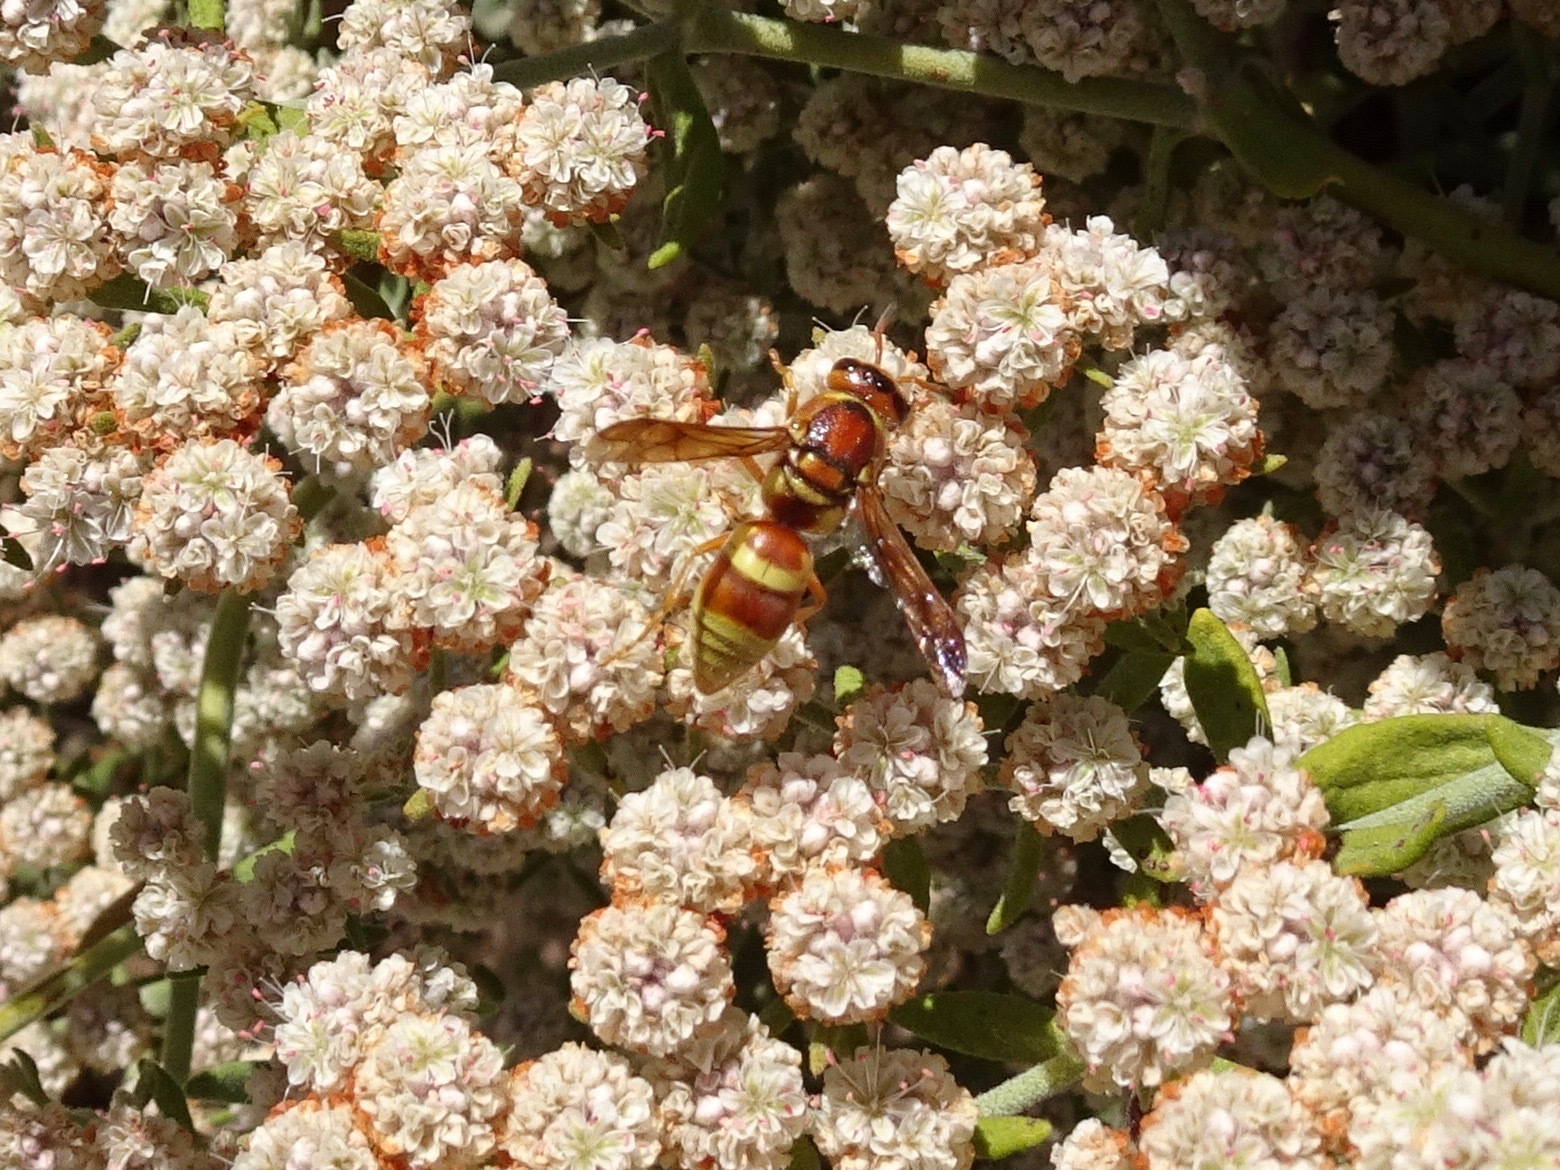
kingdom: Animalia
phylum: Arthropoda
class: Insecta
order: Hymenoptera
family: Eumenidae
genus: Euodynerus
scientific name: Euodynerus pratensis
